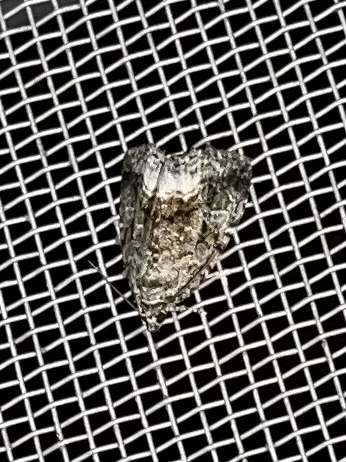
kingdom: Animalia
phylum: Arthropoda
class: Insecta
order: Lepidoptera
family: Noctuidae
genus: Protodeltote
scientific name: Protodeltote muscosula
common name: Large mossy glyph
